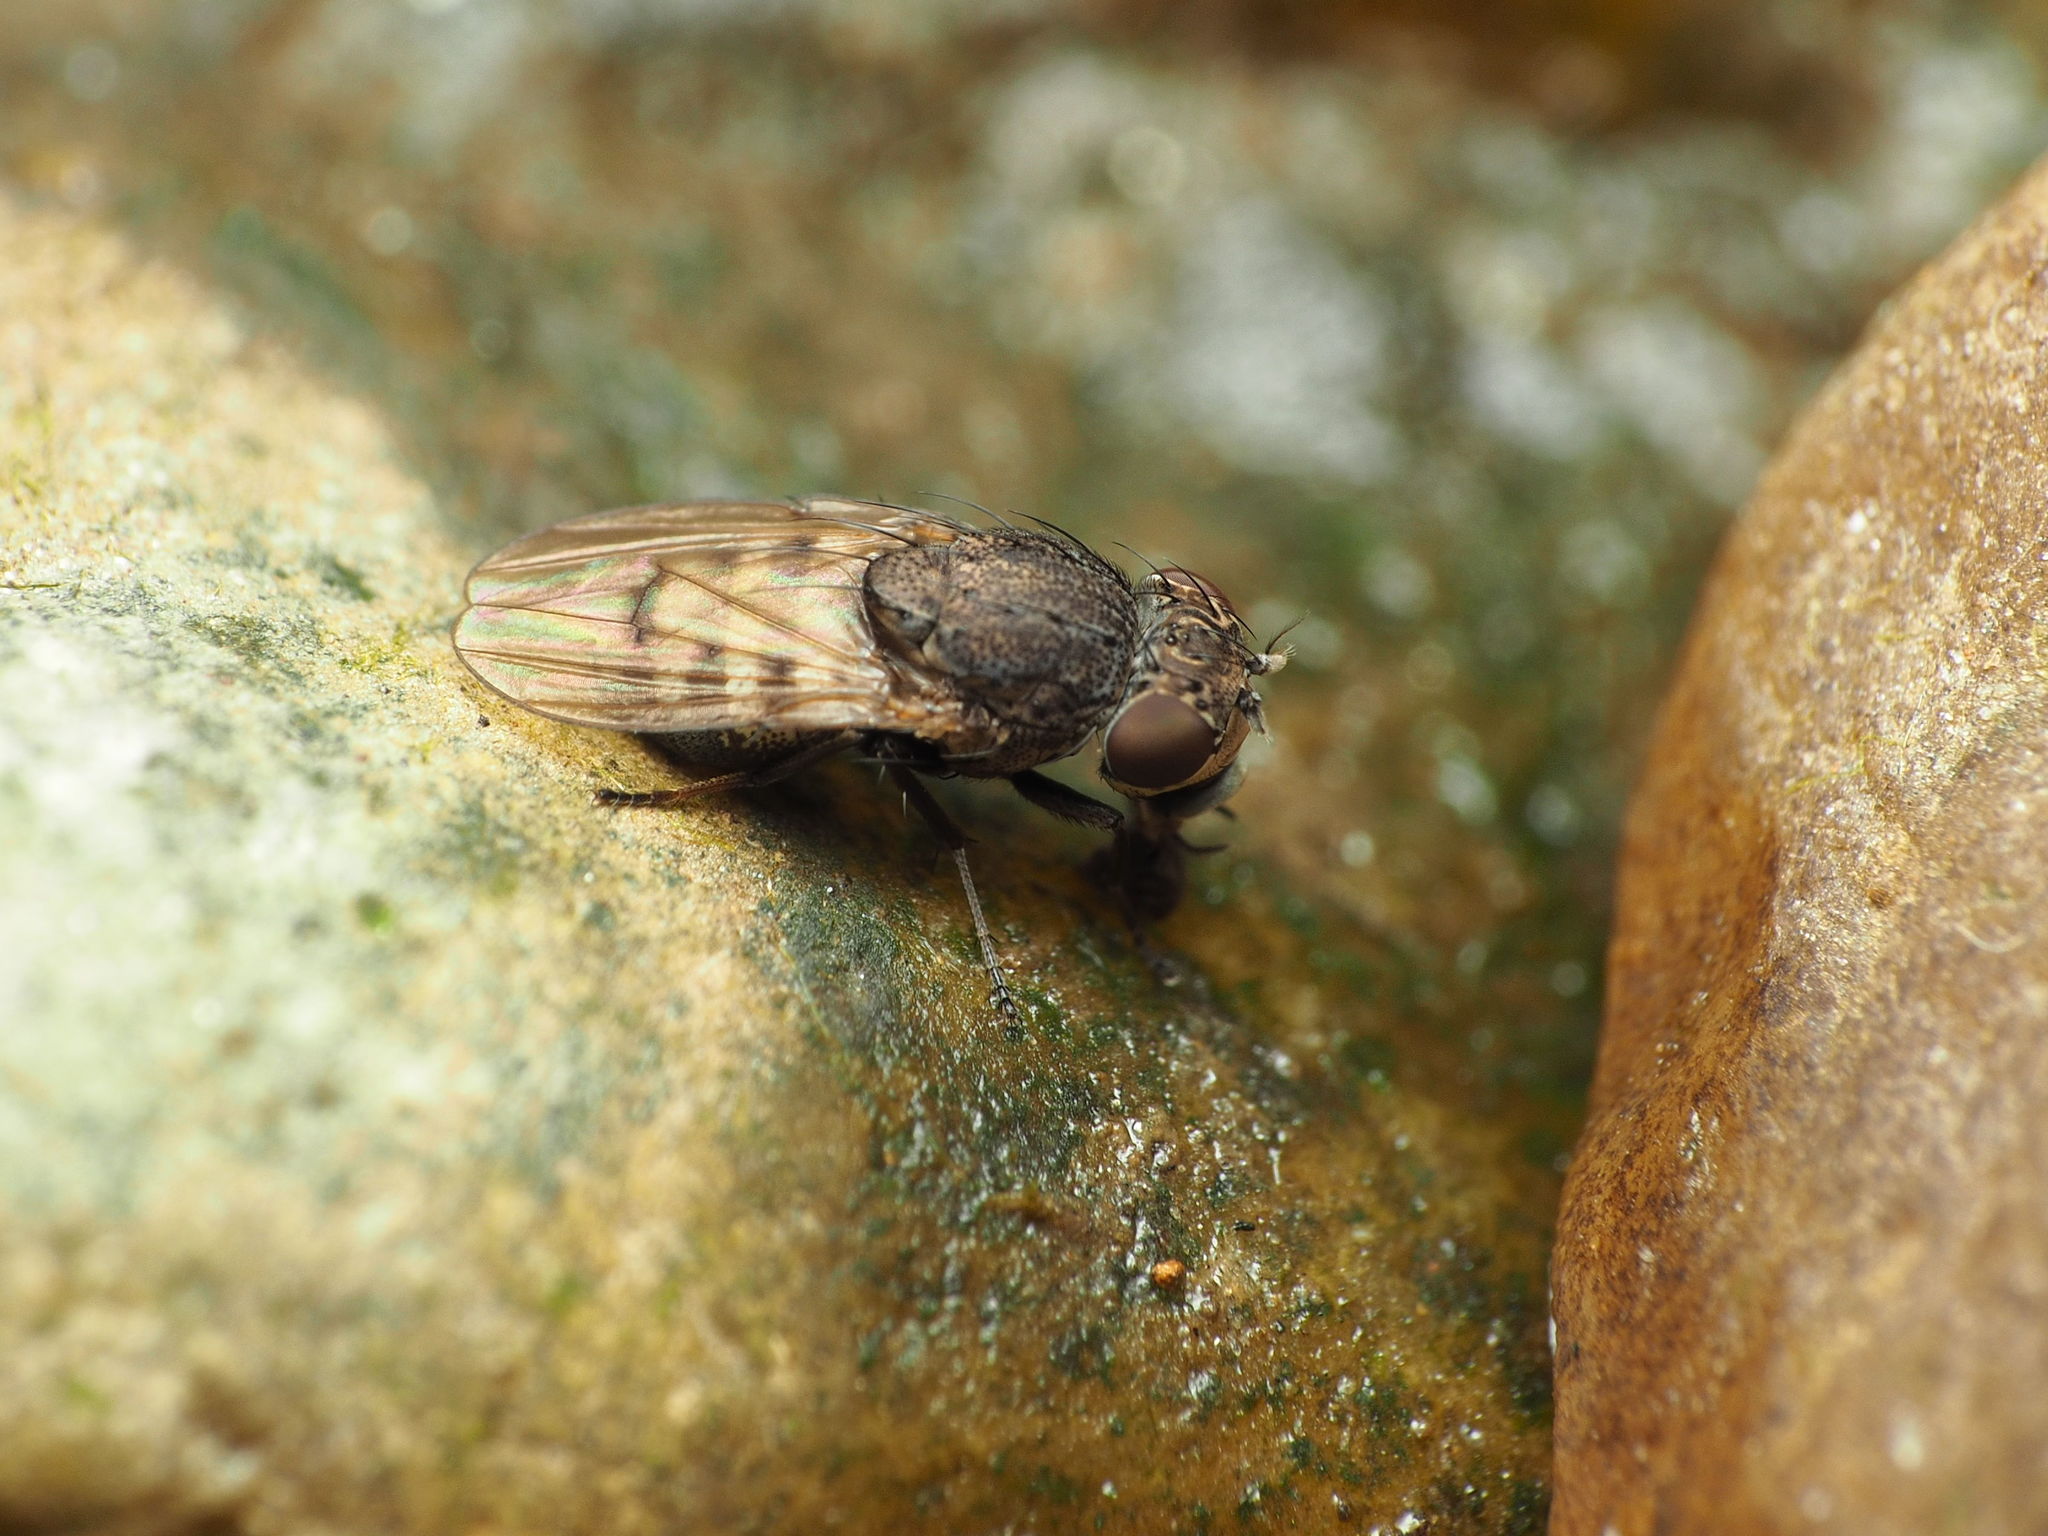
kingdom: Animalia
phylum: Arthropoda
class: Insecta
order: Diptera
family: Ephydridae
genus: Paralimna
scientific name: Paralimna punctipennis
